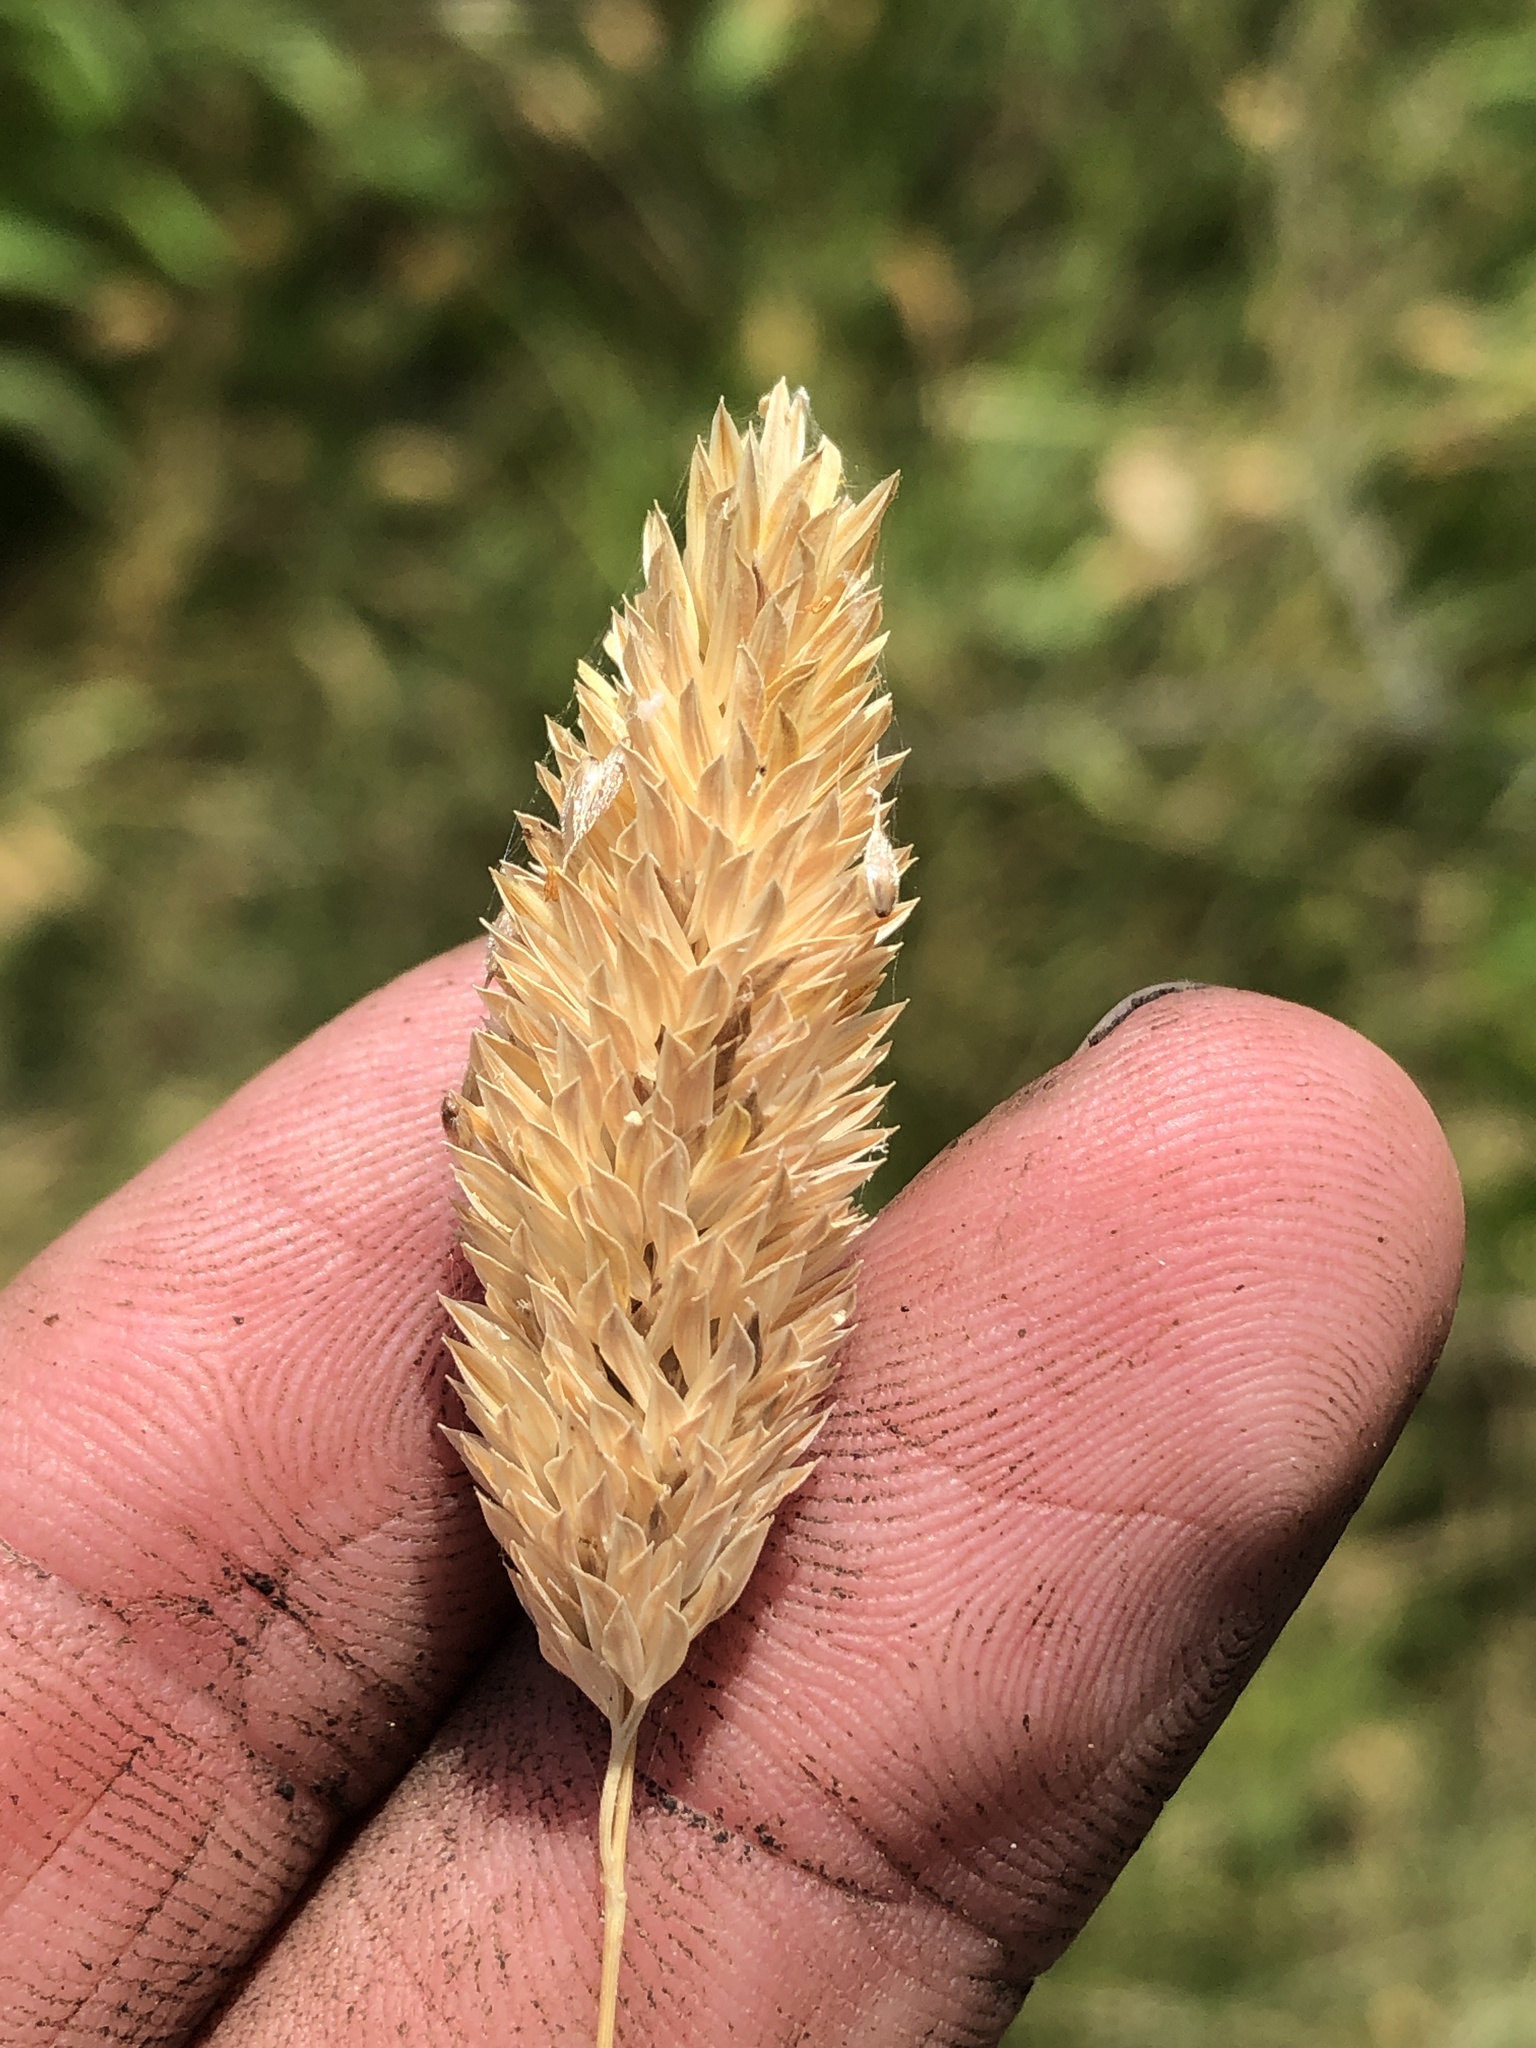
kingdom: Plantae
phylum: Tracheophyta
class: Liliopsida
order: Poales
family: Poaceae
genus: Phalaris
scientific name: Phalaris caroliniana
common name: May grass
